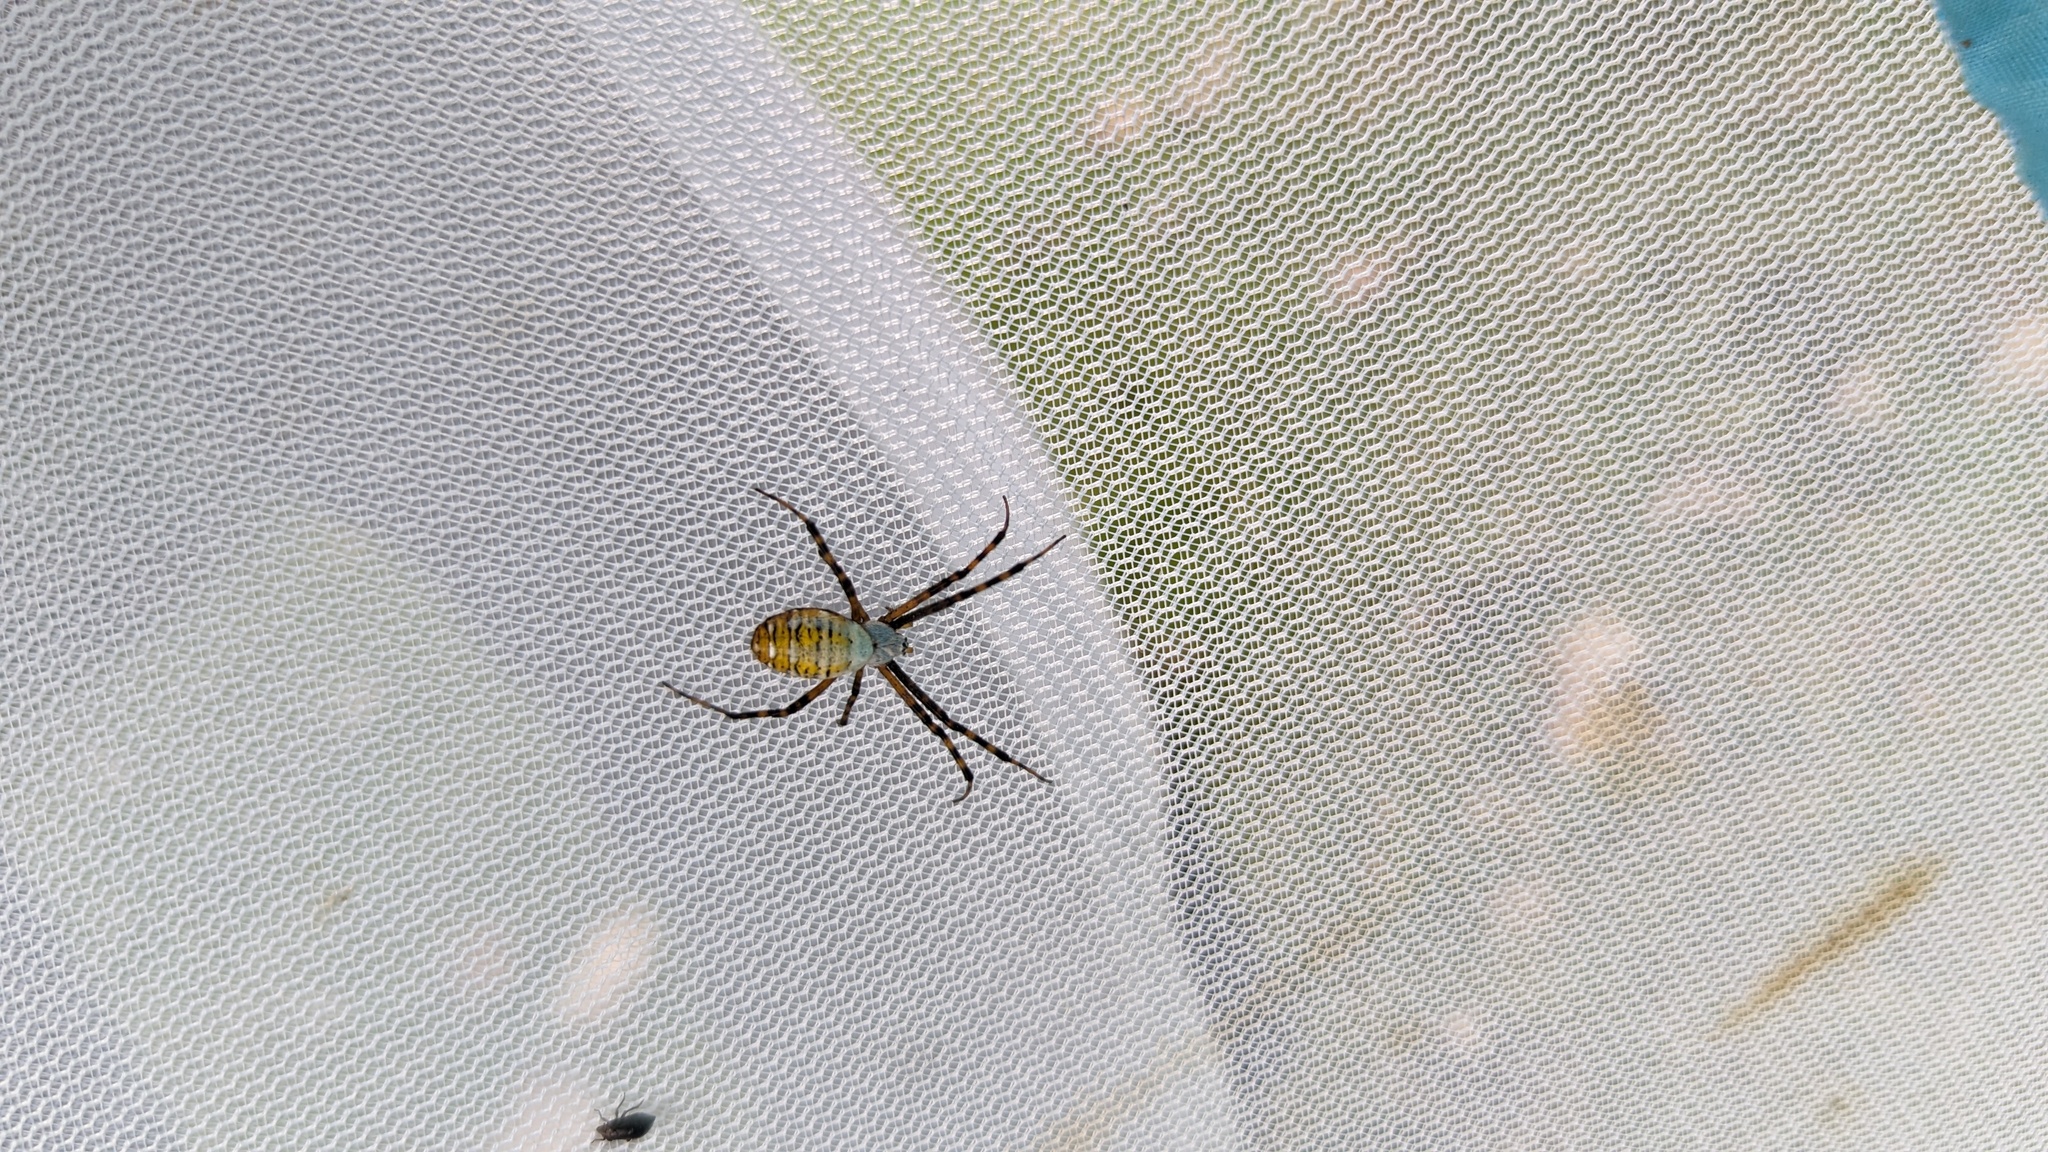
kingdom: Animalia
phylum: Arthropoda
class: Arachnida
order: Araneae
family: Araneidae
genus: Argiope
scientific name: Argiope trifasciata
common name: Banded garden spider
